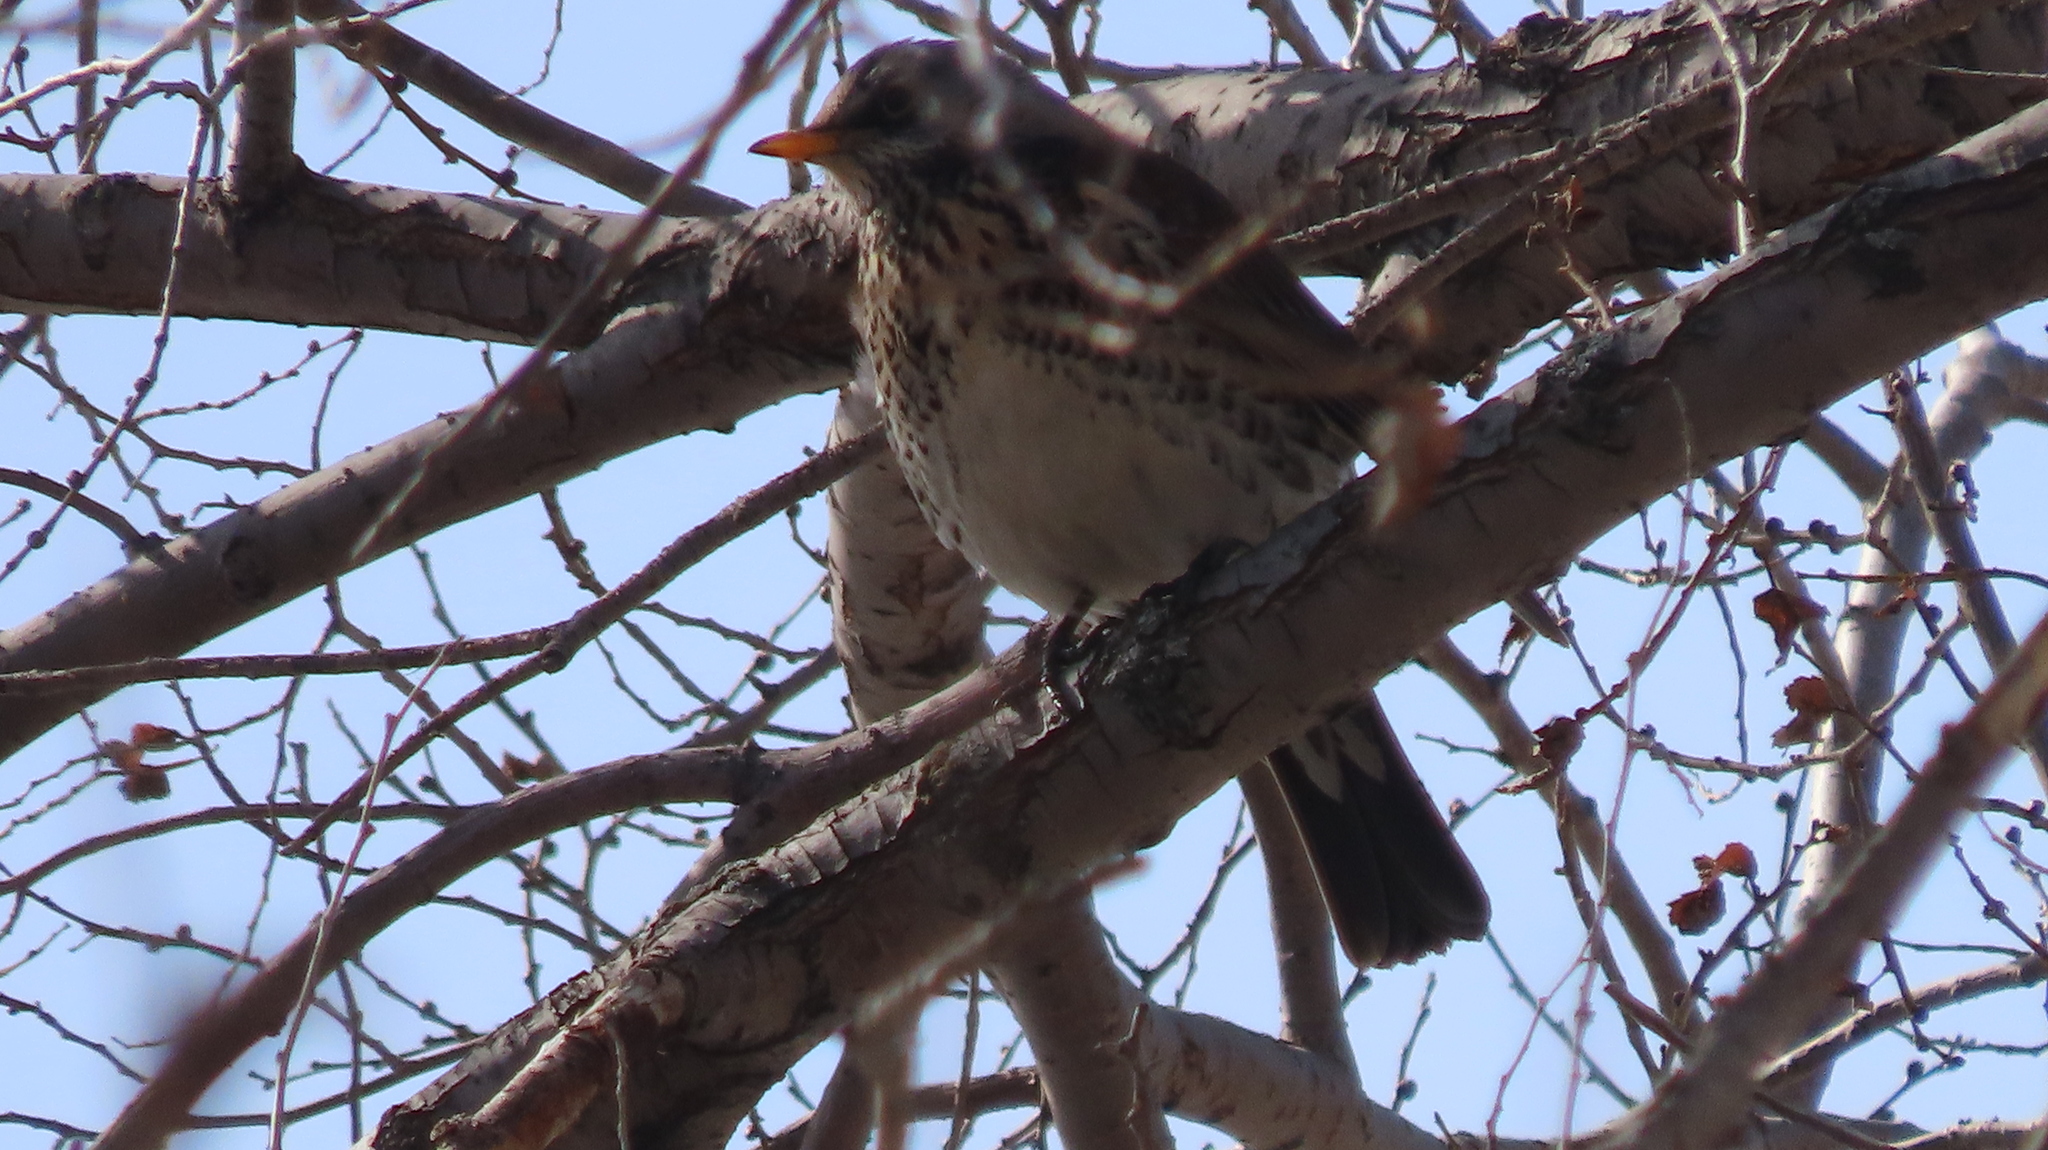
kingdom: Animalia
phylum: Chordata
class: Aves
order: Passeriformes
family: Turdidae
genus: Turdus
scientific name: Turdus pilaris
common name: Fieldfare
